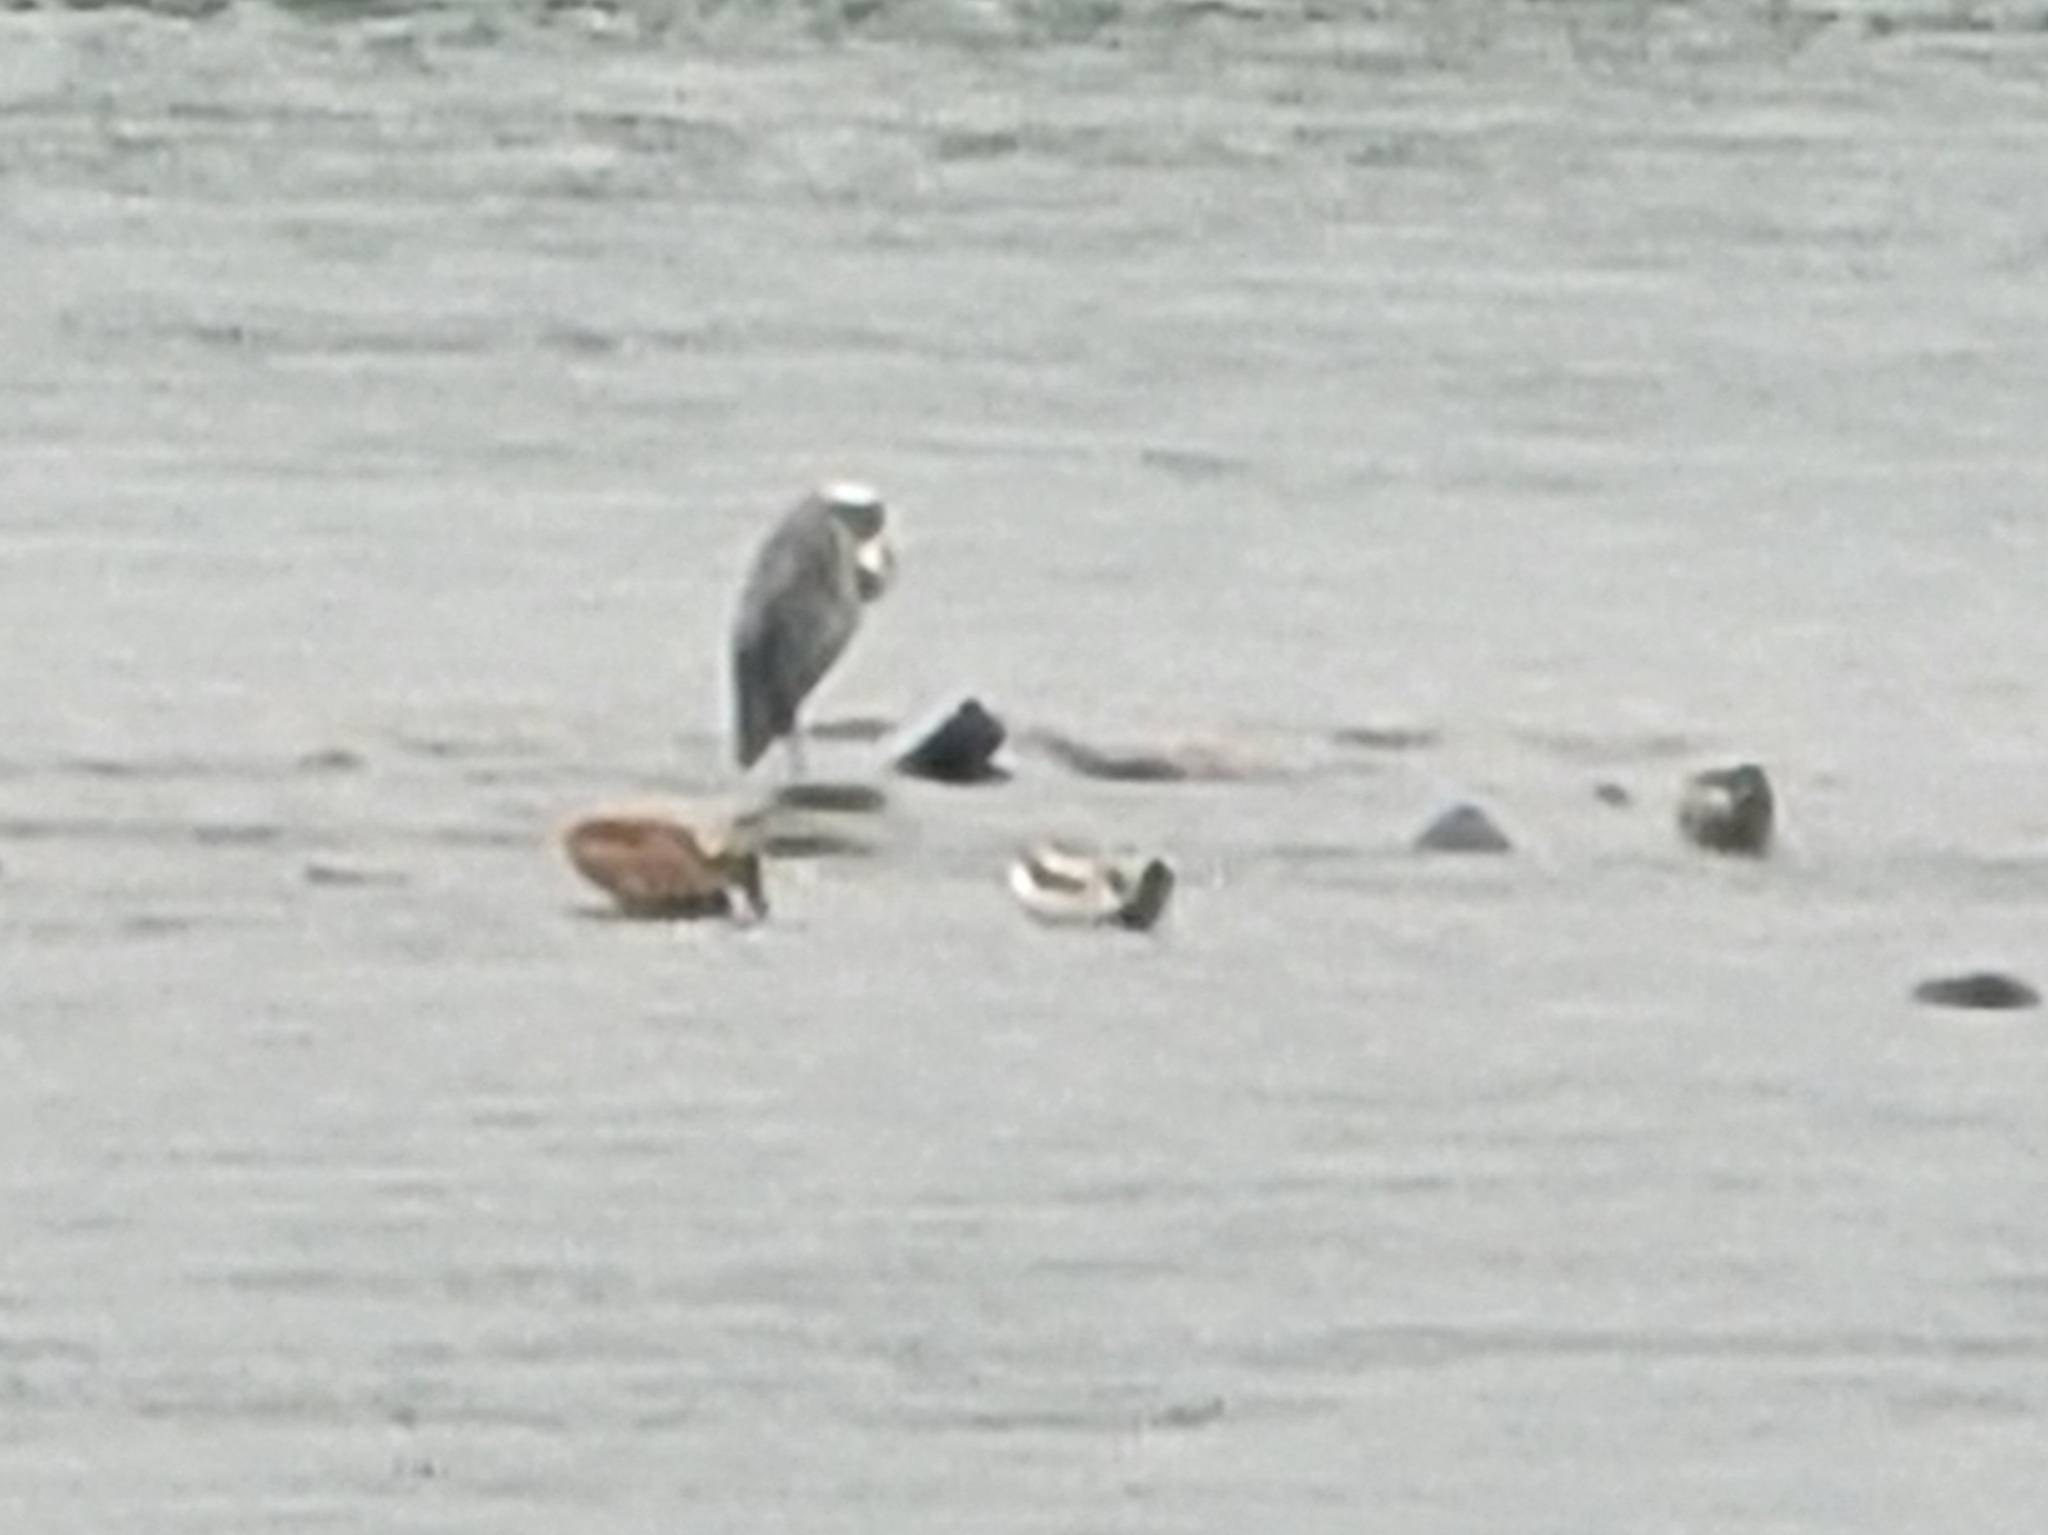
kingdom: Animalia
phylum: Chordata
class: Aves
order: Pelecaniformes
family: Ardeidae
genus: Ardea
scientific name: Ardea cinerea
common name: Grey heron
